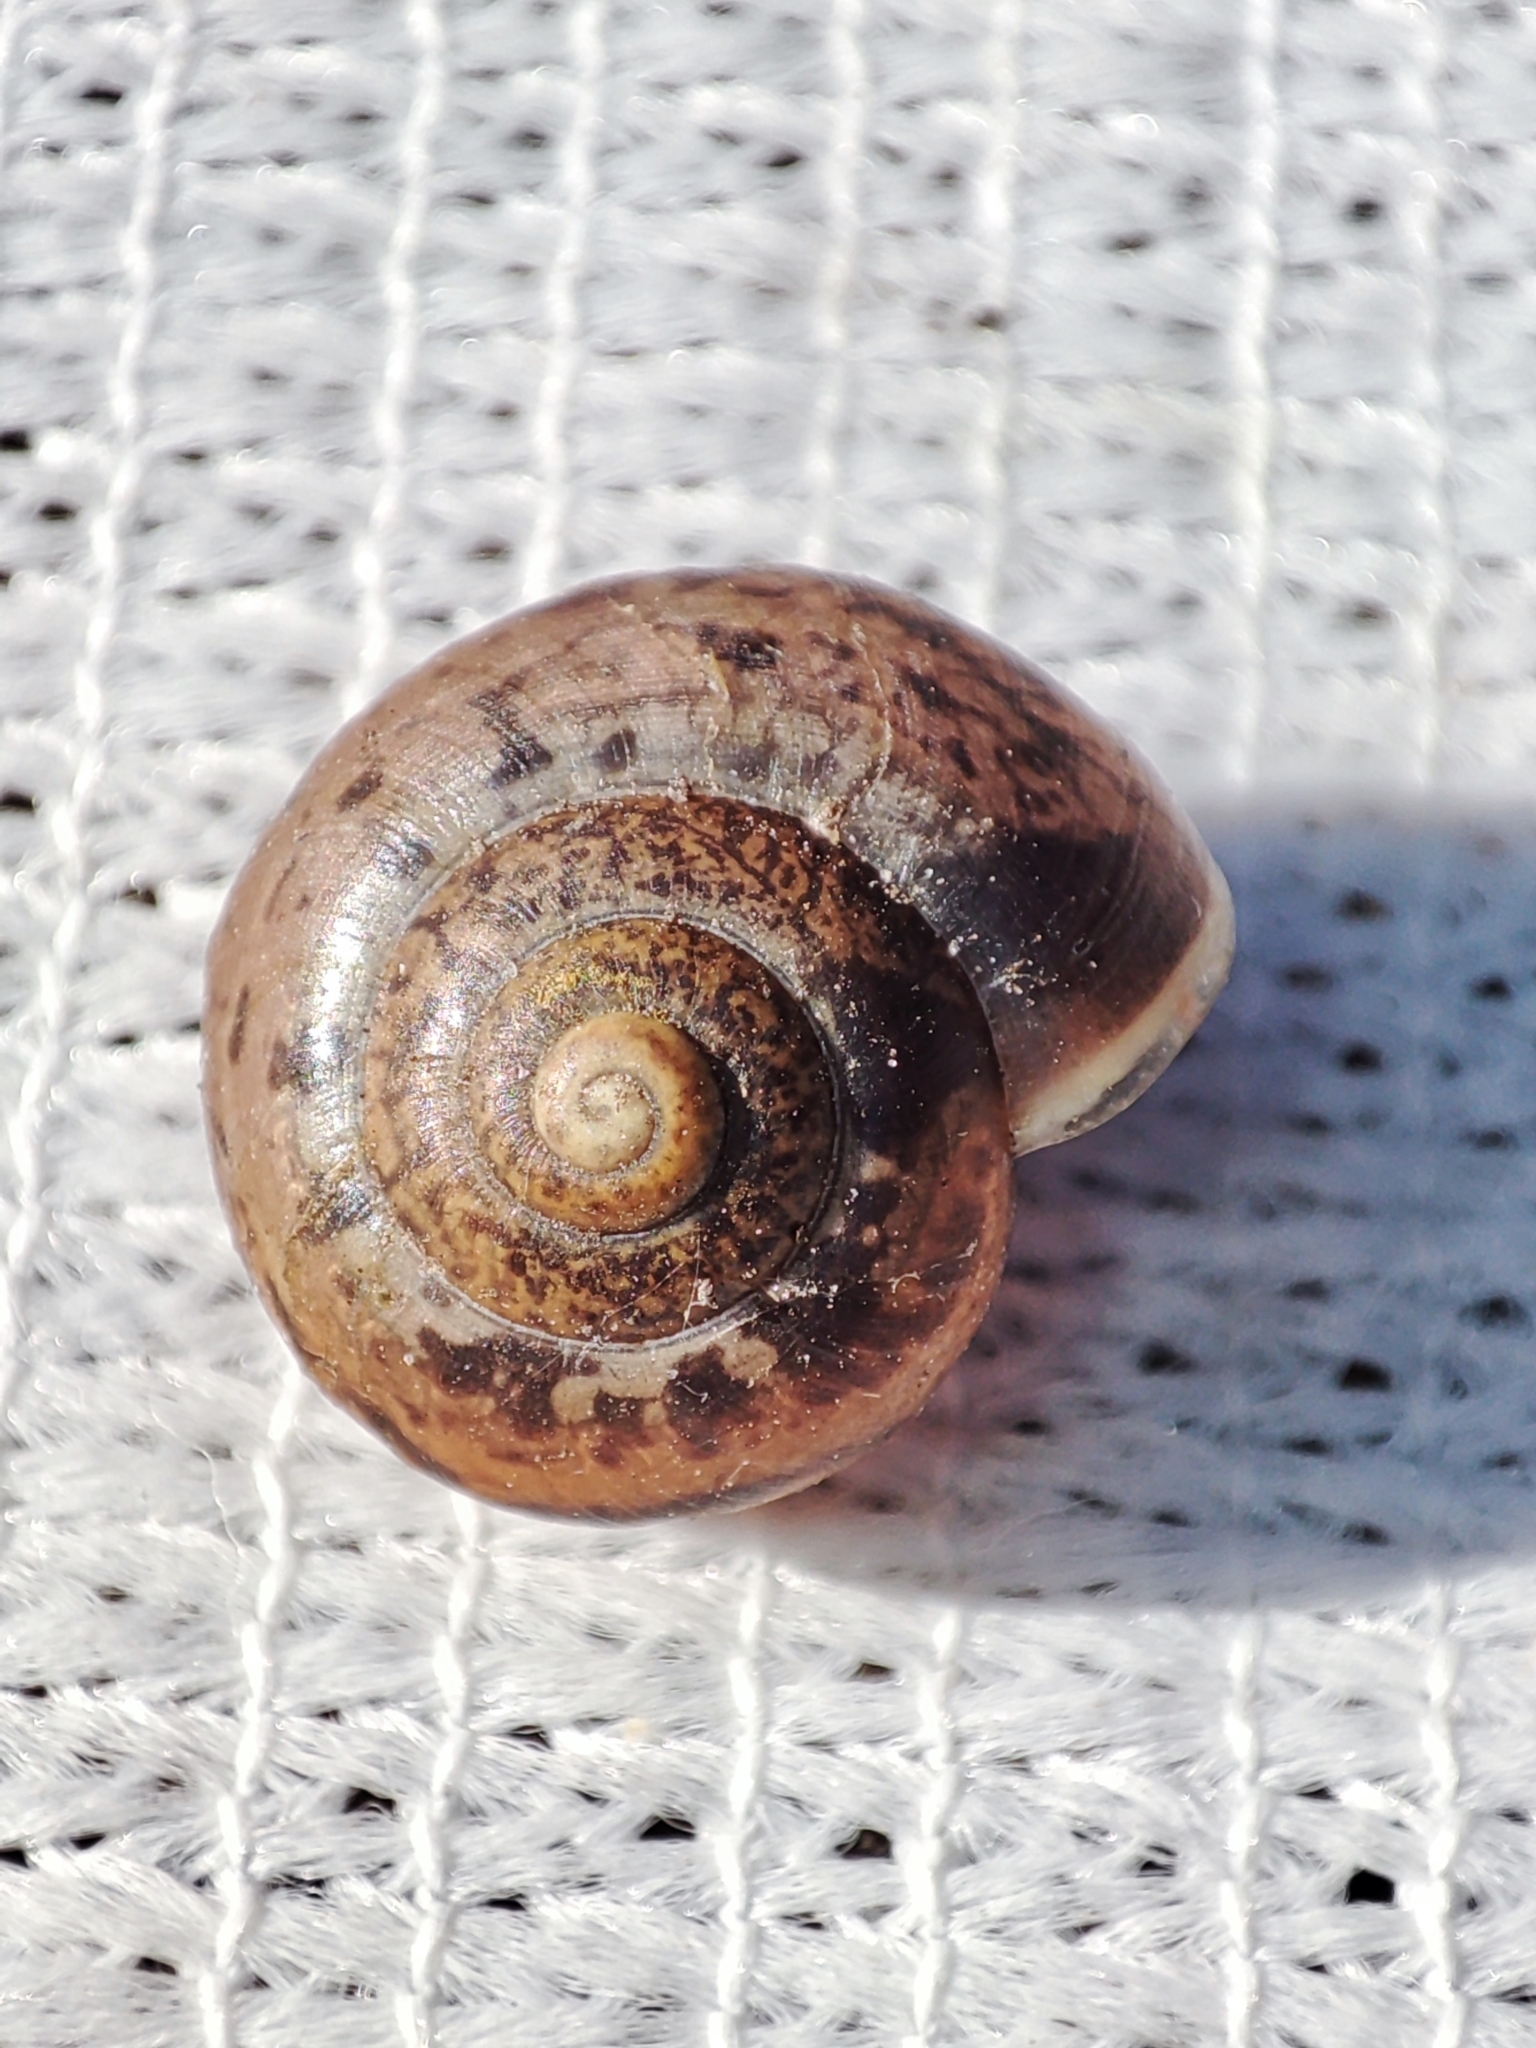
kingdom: Animalia
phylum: Mollusca
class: Gastropoda
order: Stylommatophora
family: Camaenidae
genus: Fruticicola
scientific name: Fruticicola fruticum
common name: Bush snail
